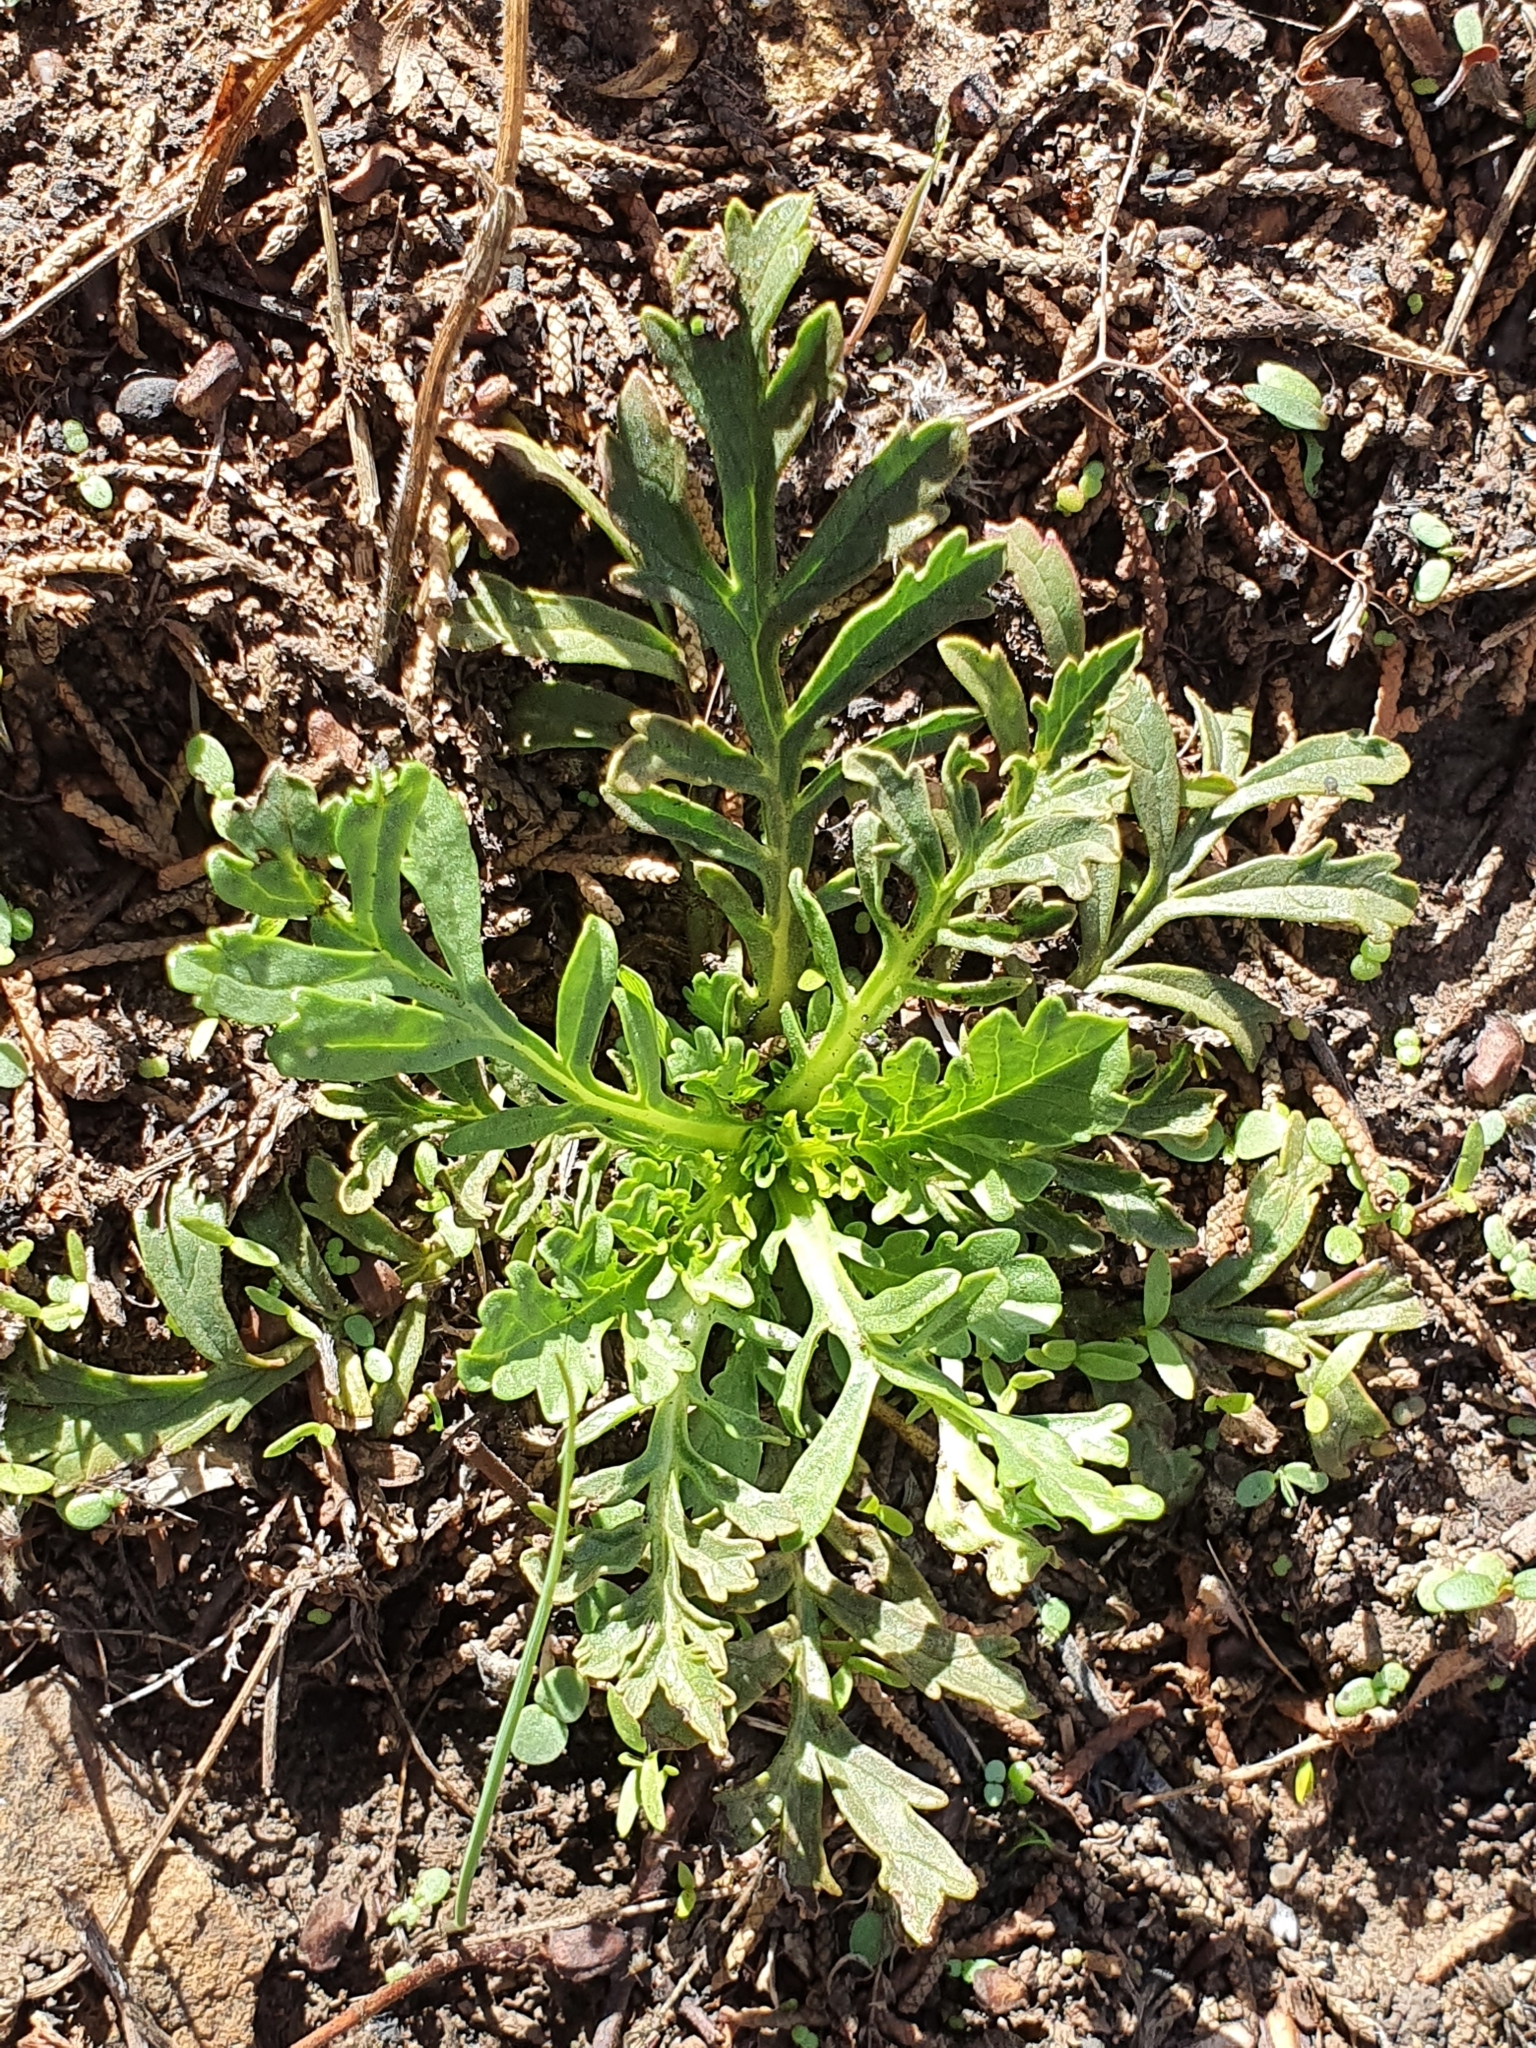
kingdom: Plantae
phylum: Tracheophyta
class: Magnoliopsida
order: Dipsacales
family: Caprifoliaceae
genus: Sixalix
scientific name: Sixalix maritima
